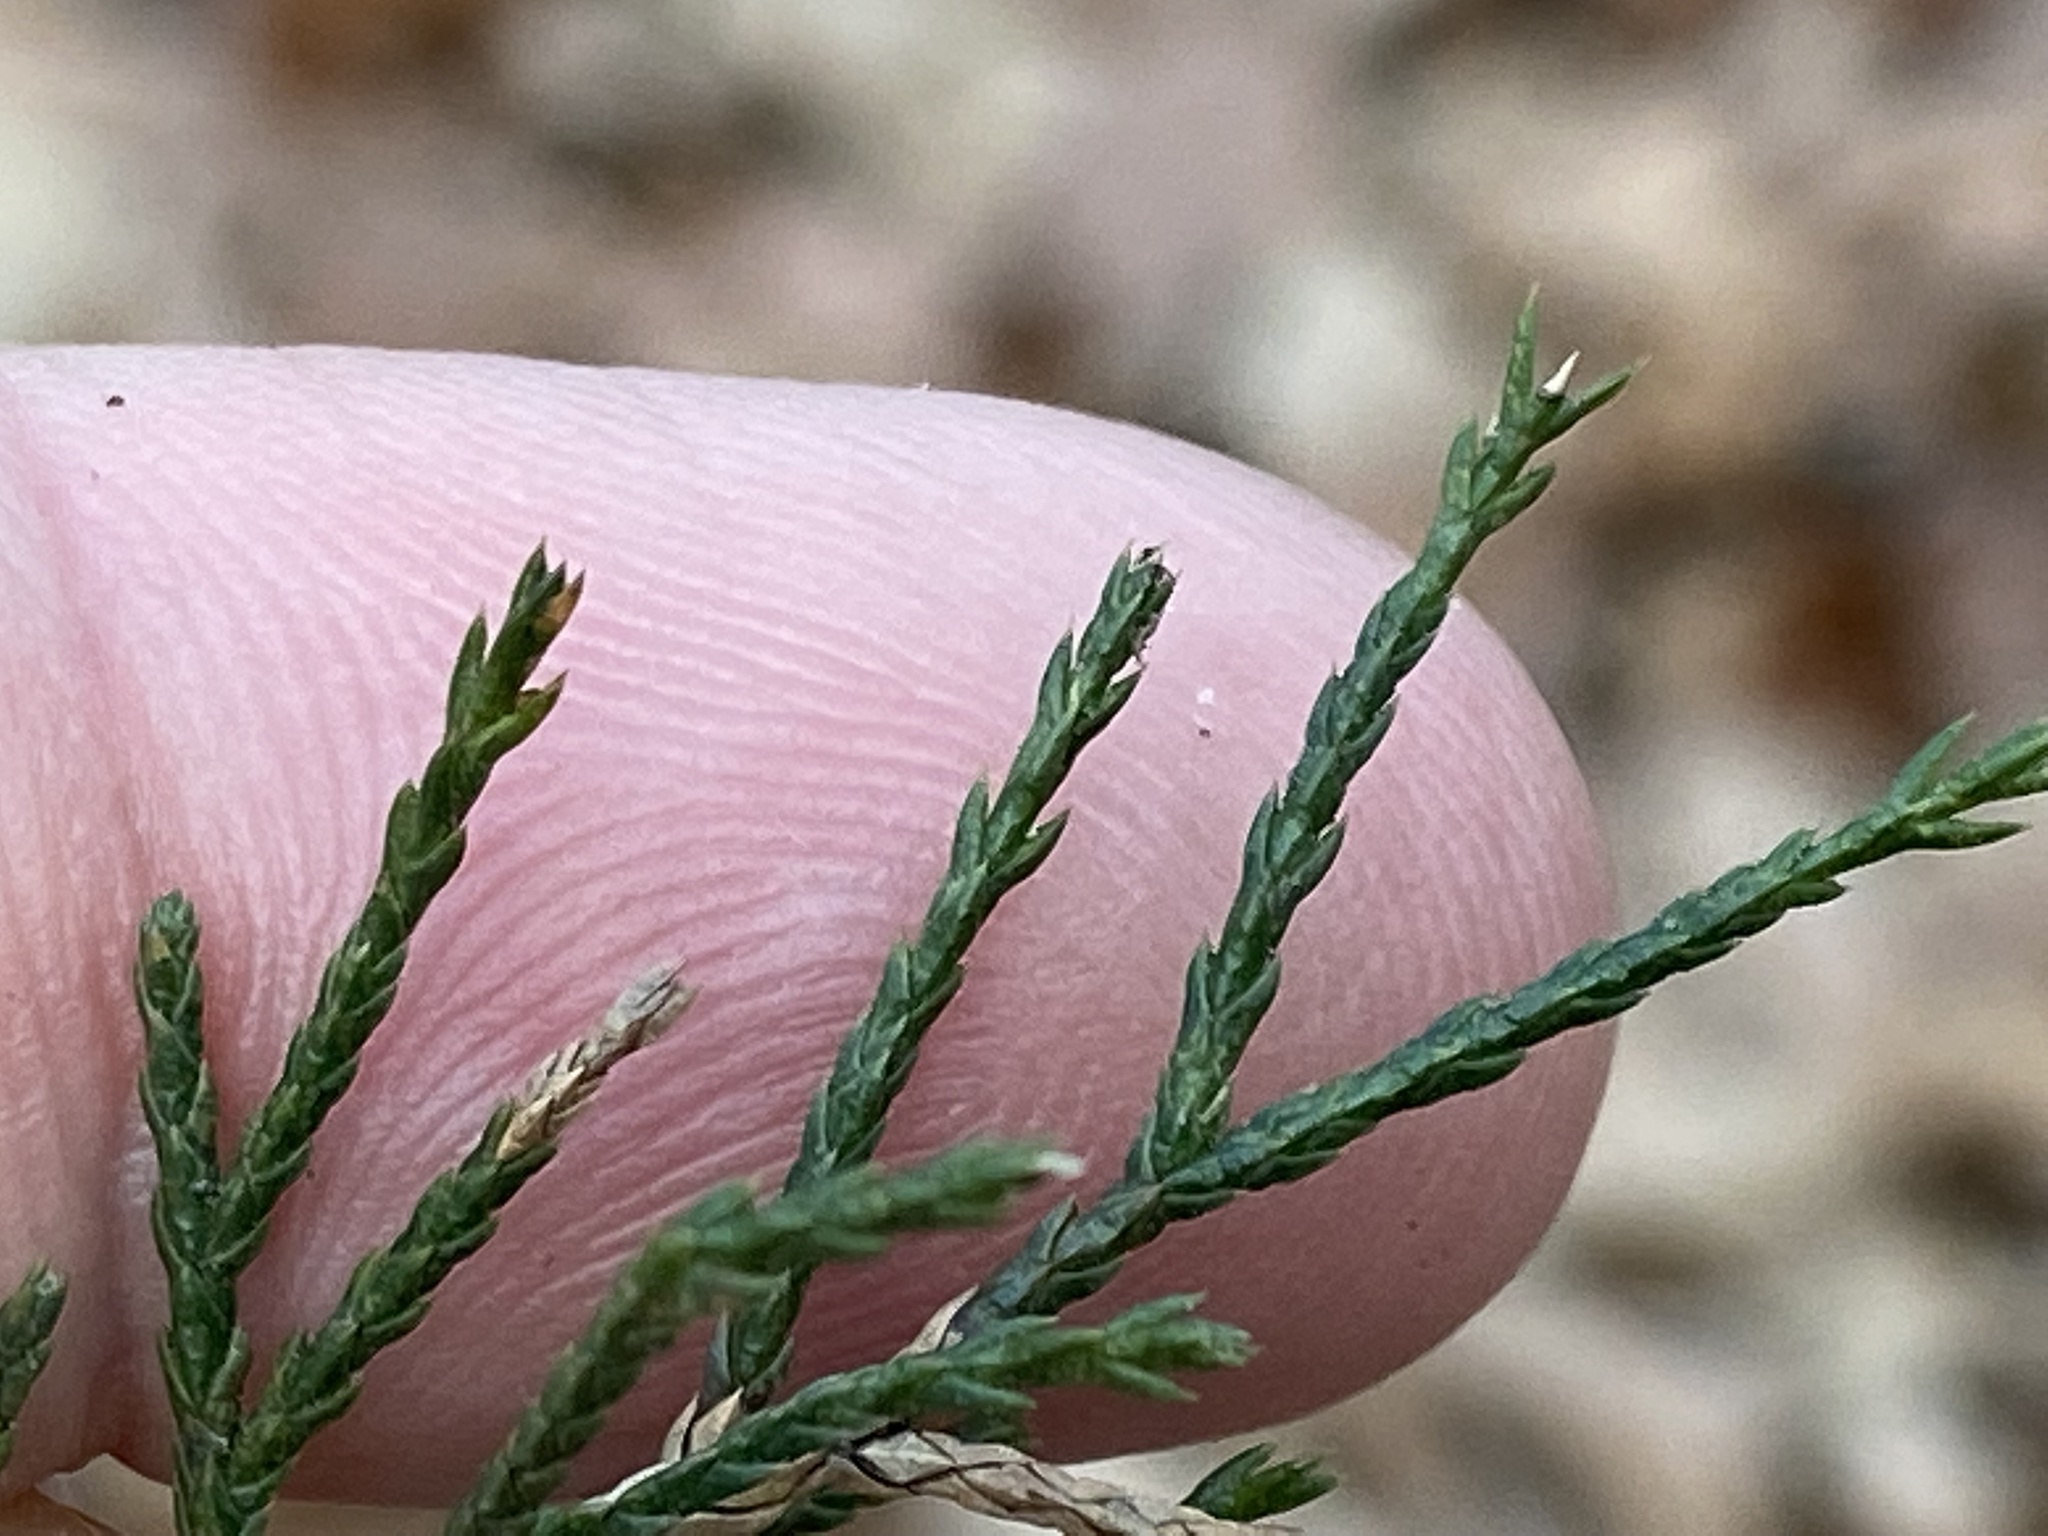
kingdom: Plantae
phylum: Tracheophyta
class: Pinopsida
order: Pinales
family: Cupressaceae
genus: Juniperus
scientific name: Juniperus virginiana
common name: Red juniper
